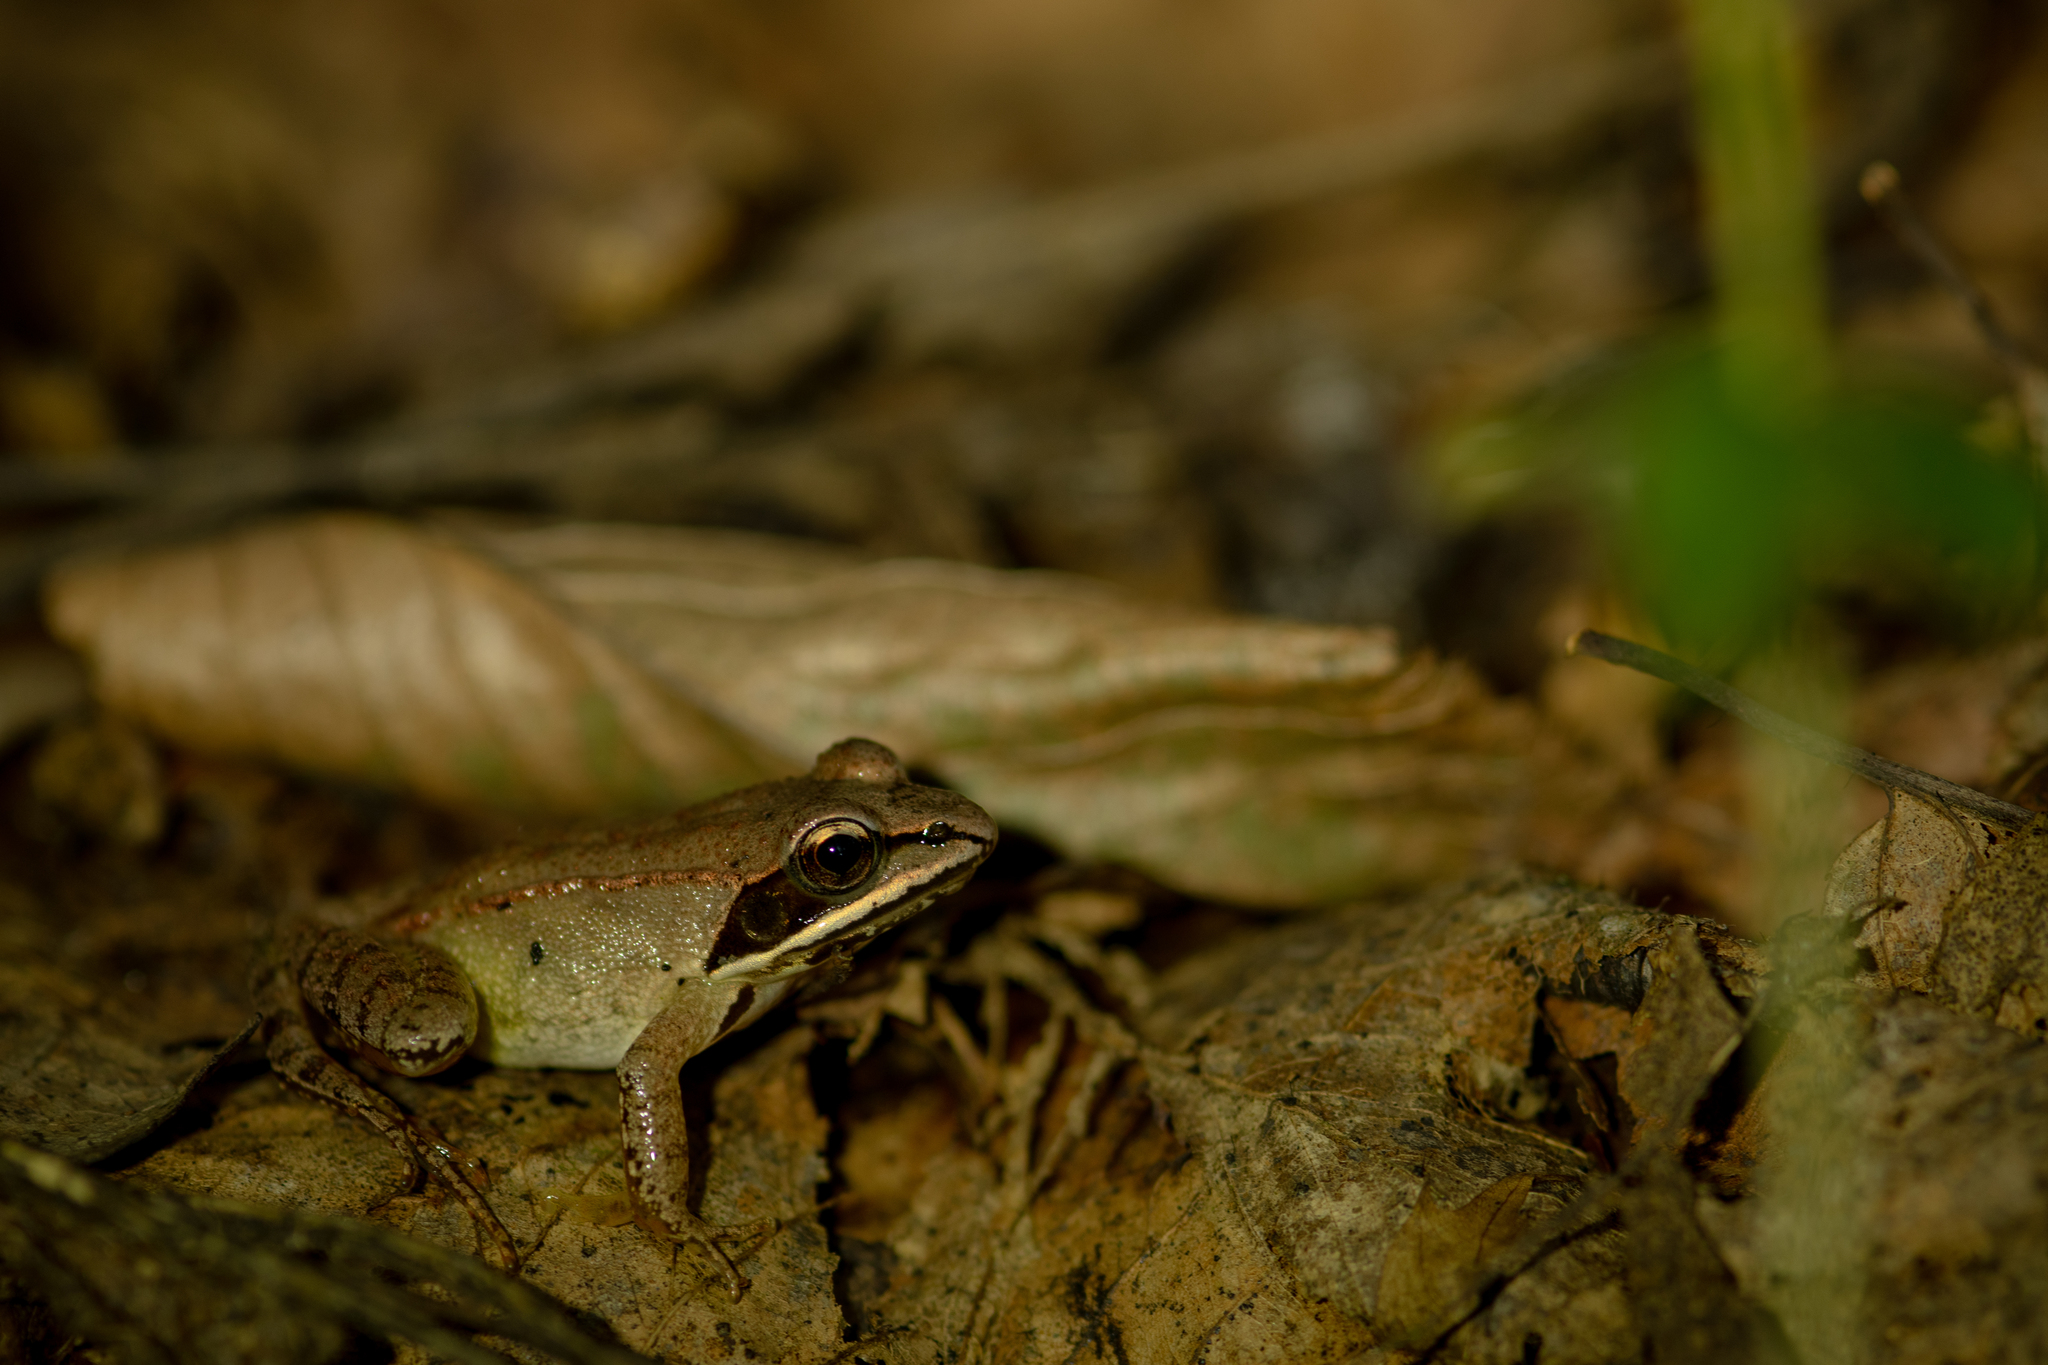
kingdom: Animalia
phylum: Chordata
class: Amphibia
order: Anura
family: Ranidae
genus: Lithobates
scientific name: Lithobates sylvaticus
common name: Wood frog
